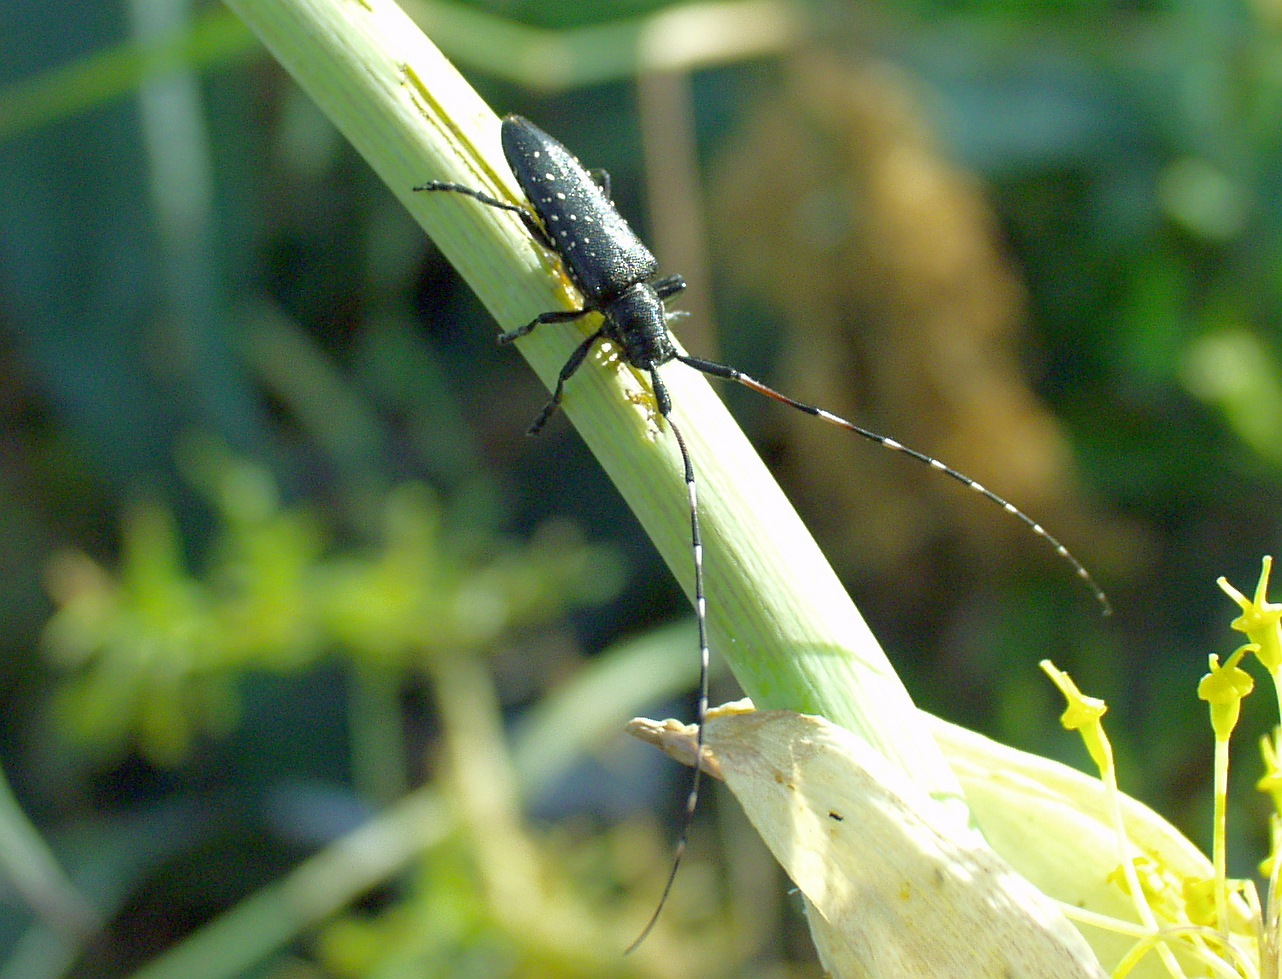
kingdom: Animalia
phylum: Arthropoda
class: Insecta
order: Coleoptera
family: Cerambycidae
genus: Agapanthia
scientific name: Agapanthia irrorata
